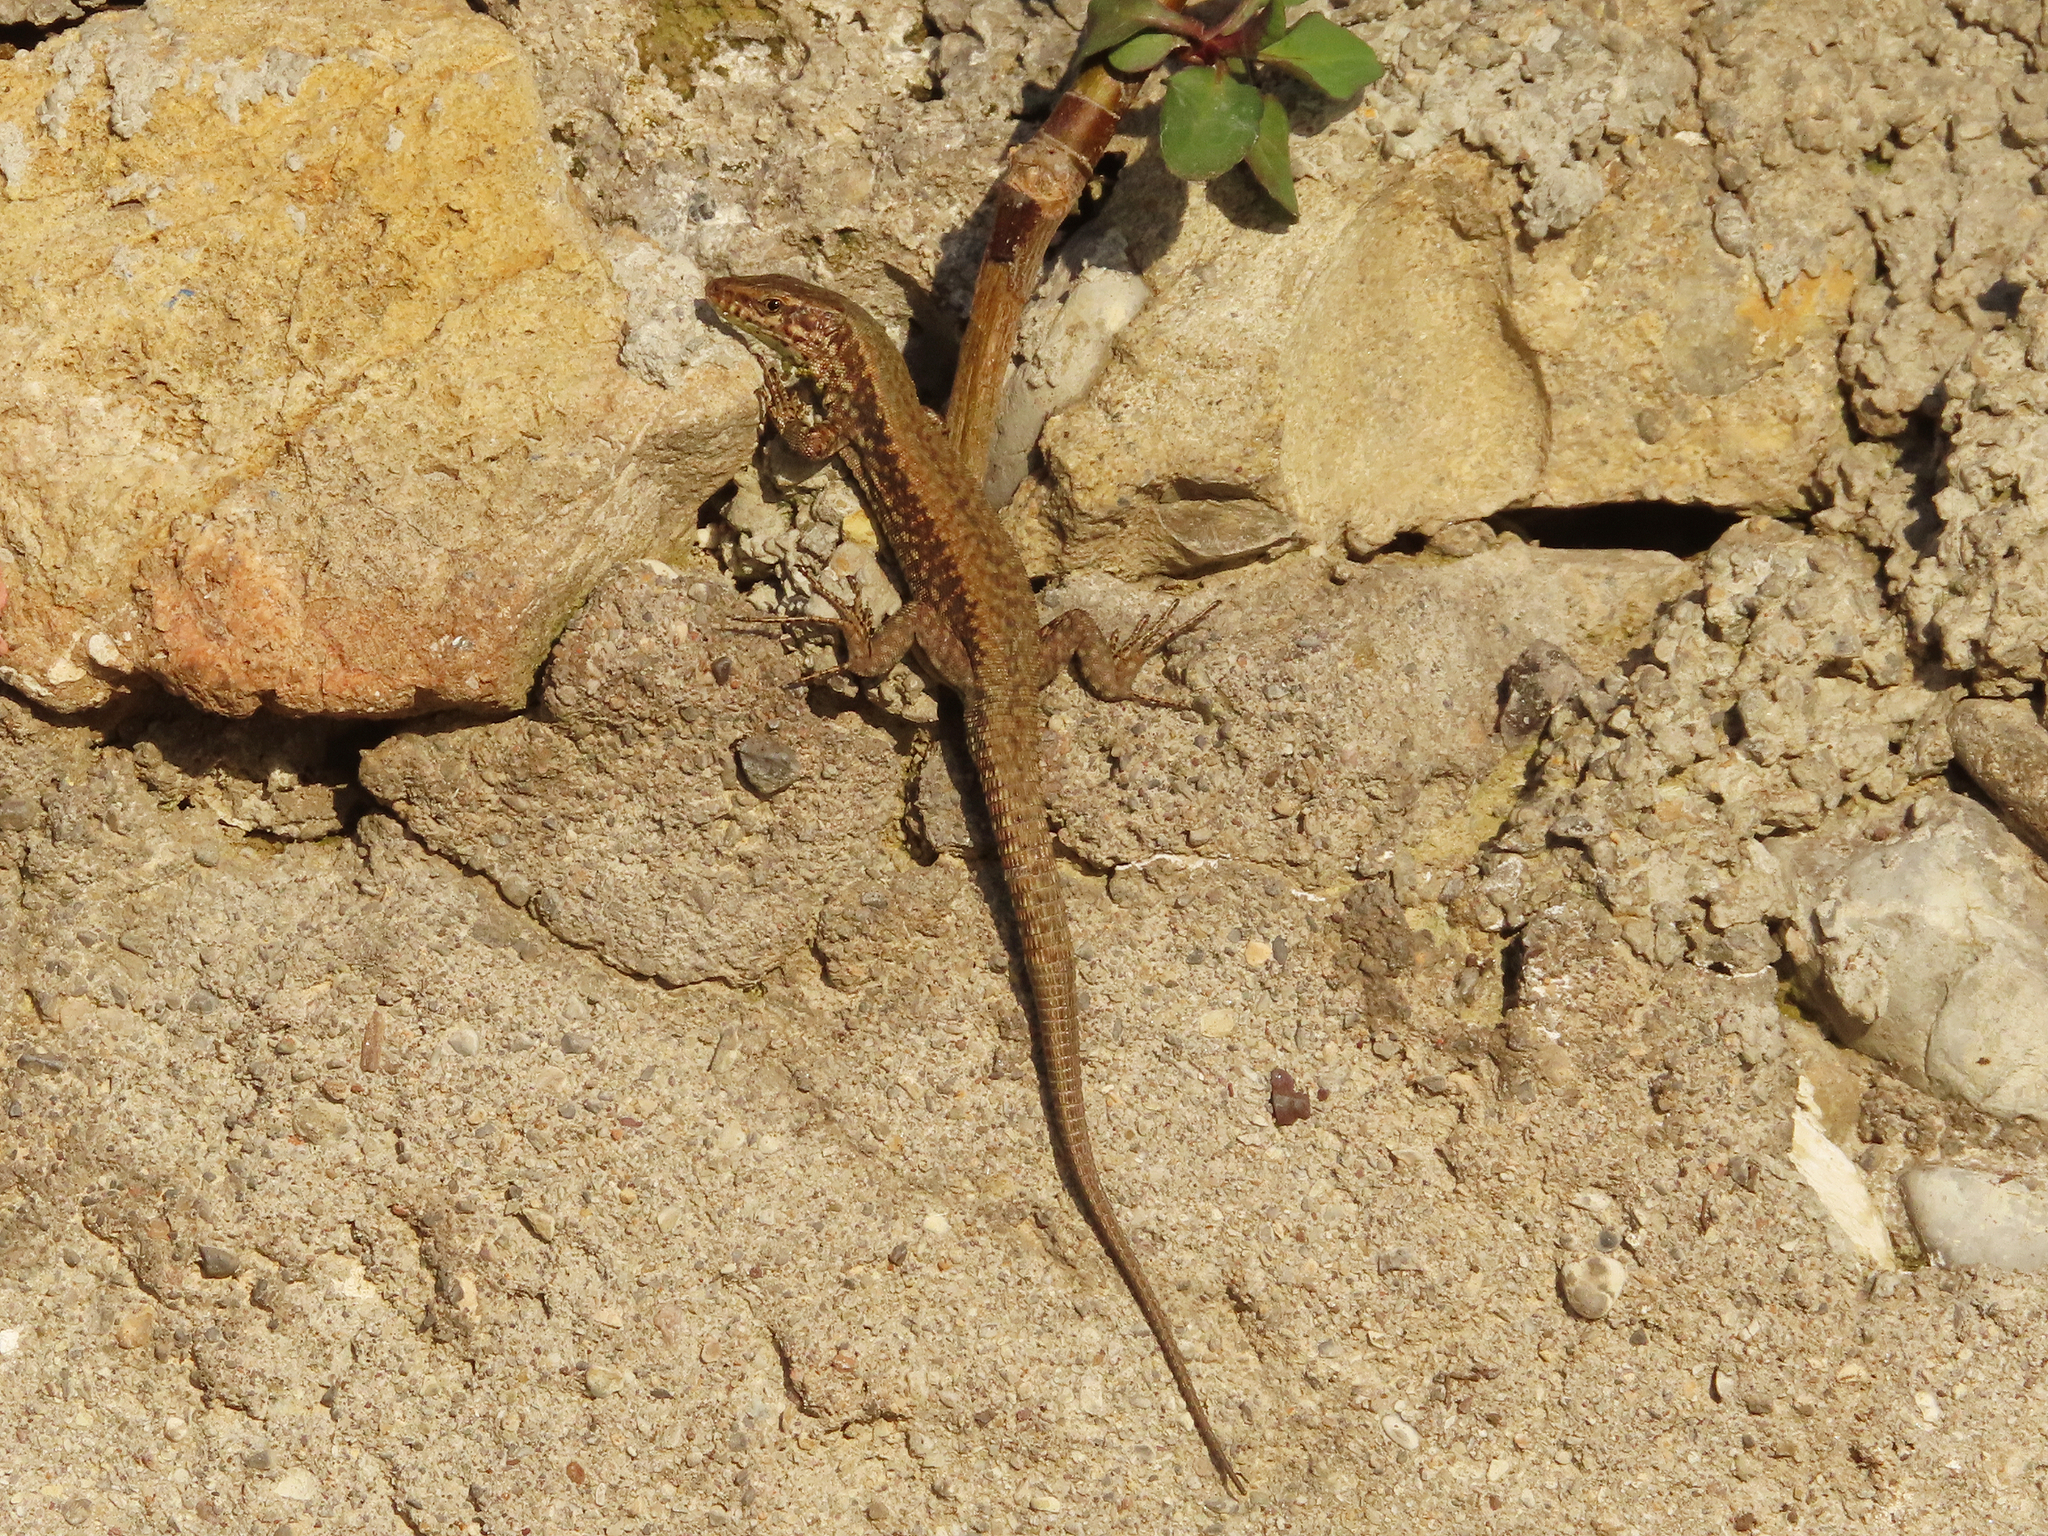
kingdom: Animalia
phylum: Chordata
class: Squamata
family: Lacertidae
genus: Podarcis
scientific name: Podarcis muralis
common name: Common wall lizard
